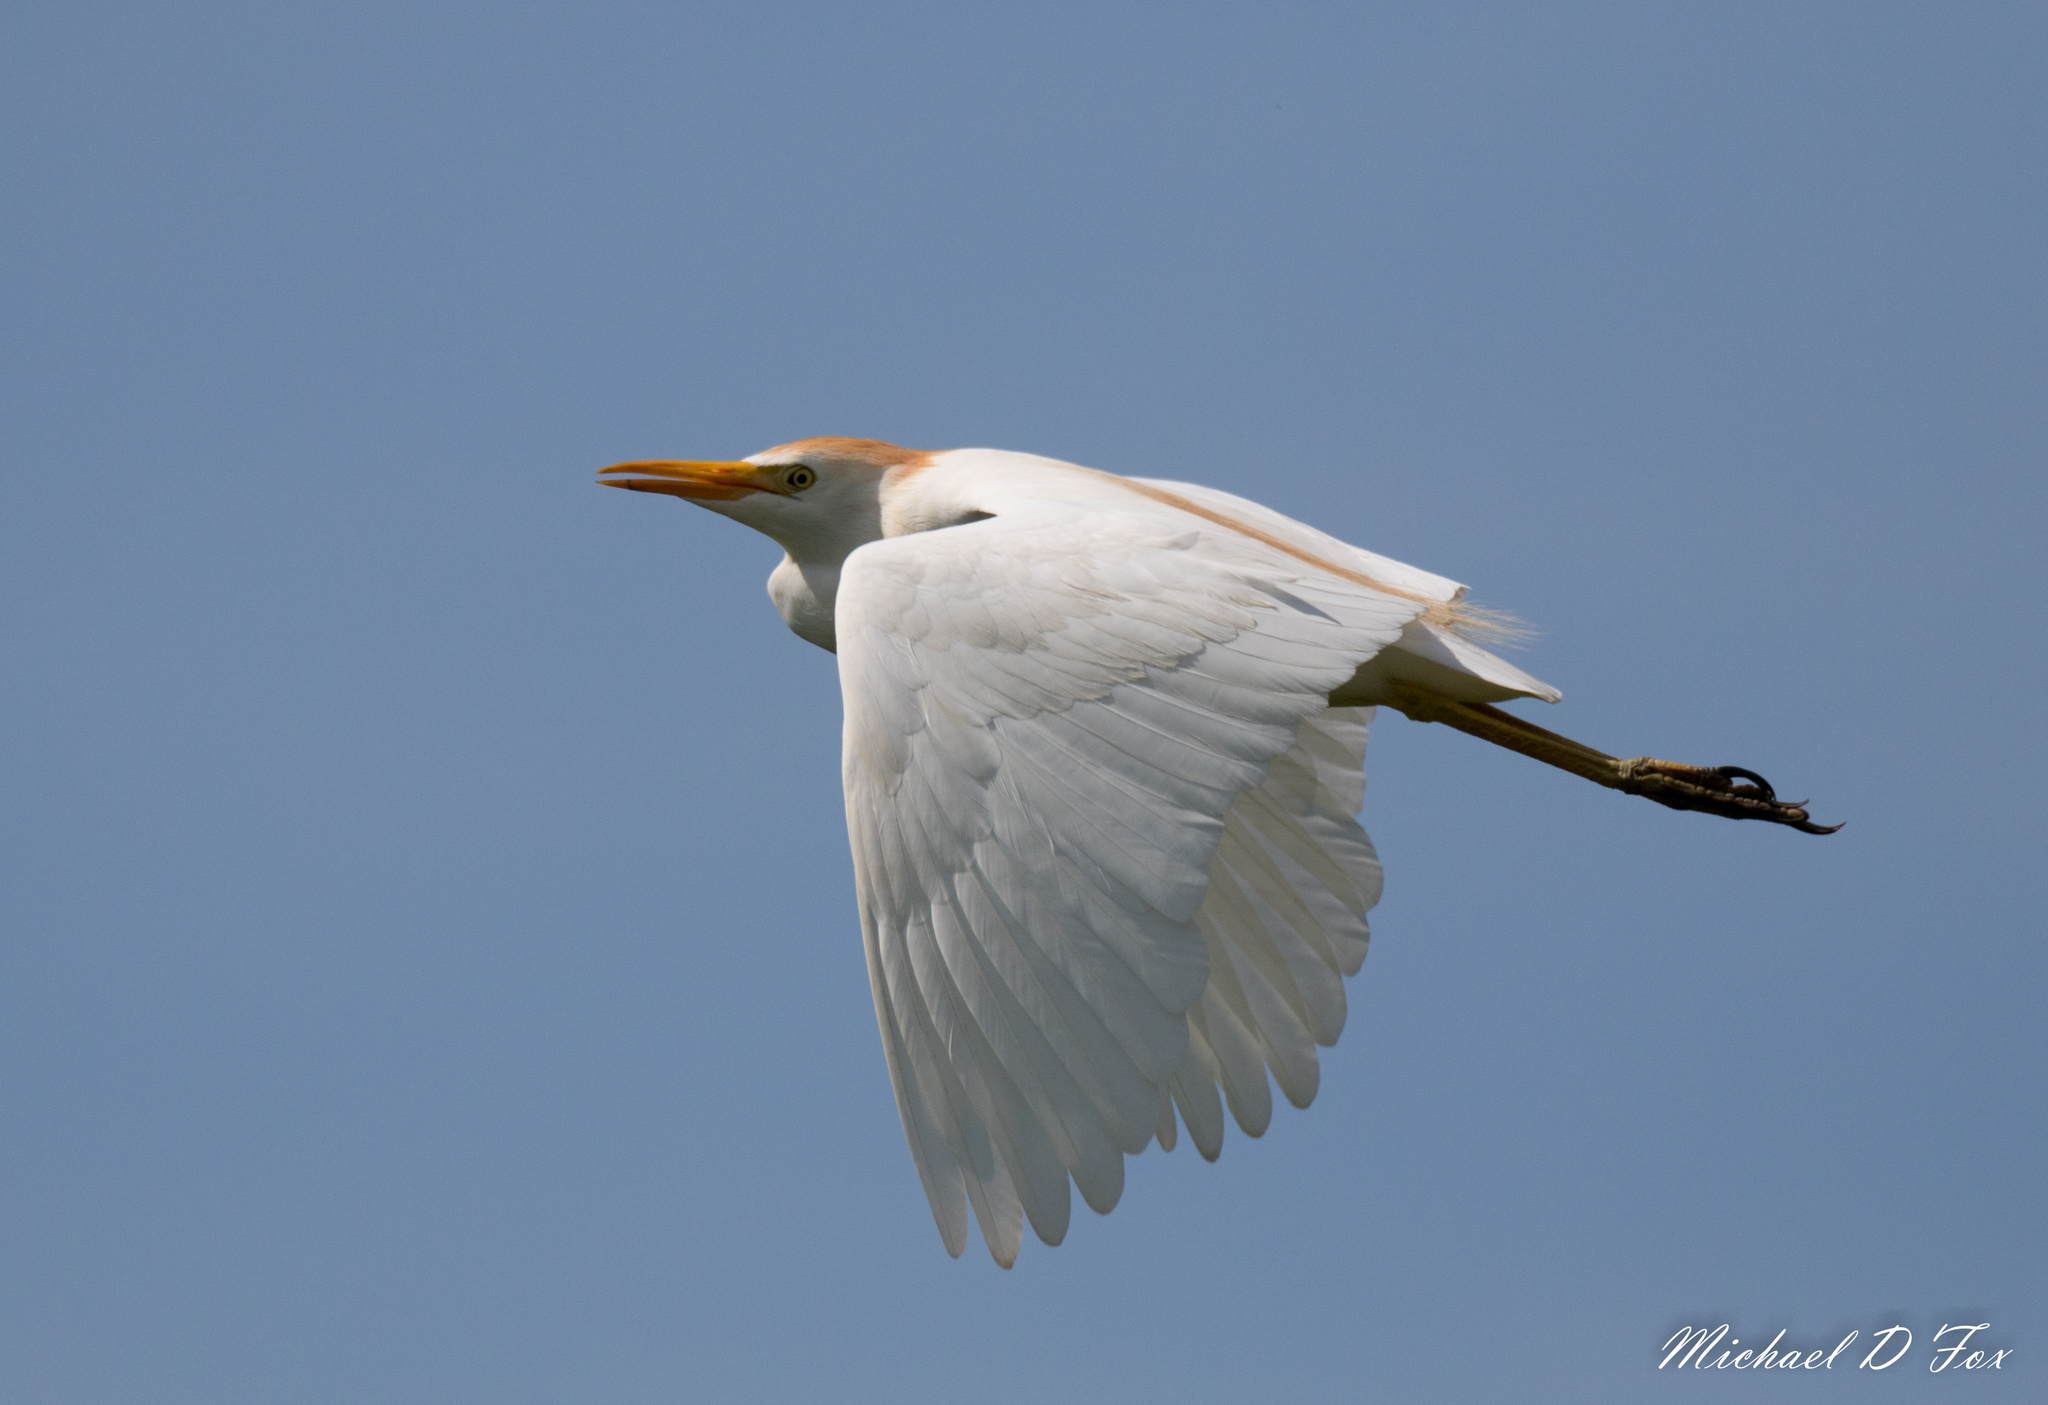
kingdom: Animalia
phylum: Chordata
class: Aves
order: Pelecaniformes
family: Ardeidae
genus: Bubulcus
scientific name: Bubulcus ibis
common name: Cattle egret
